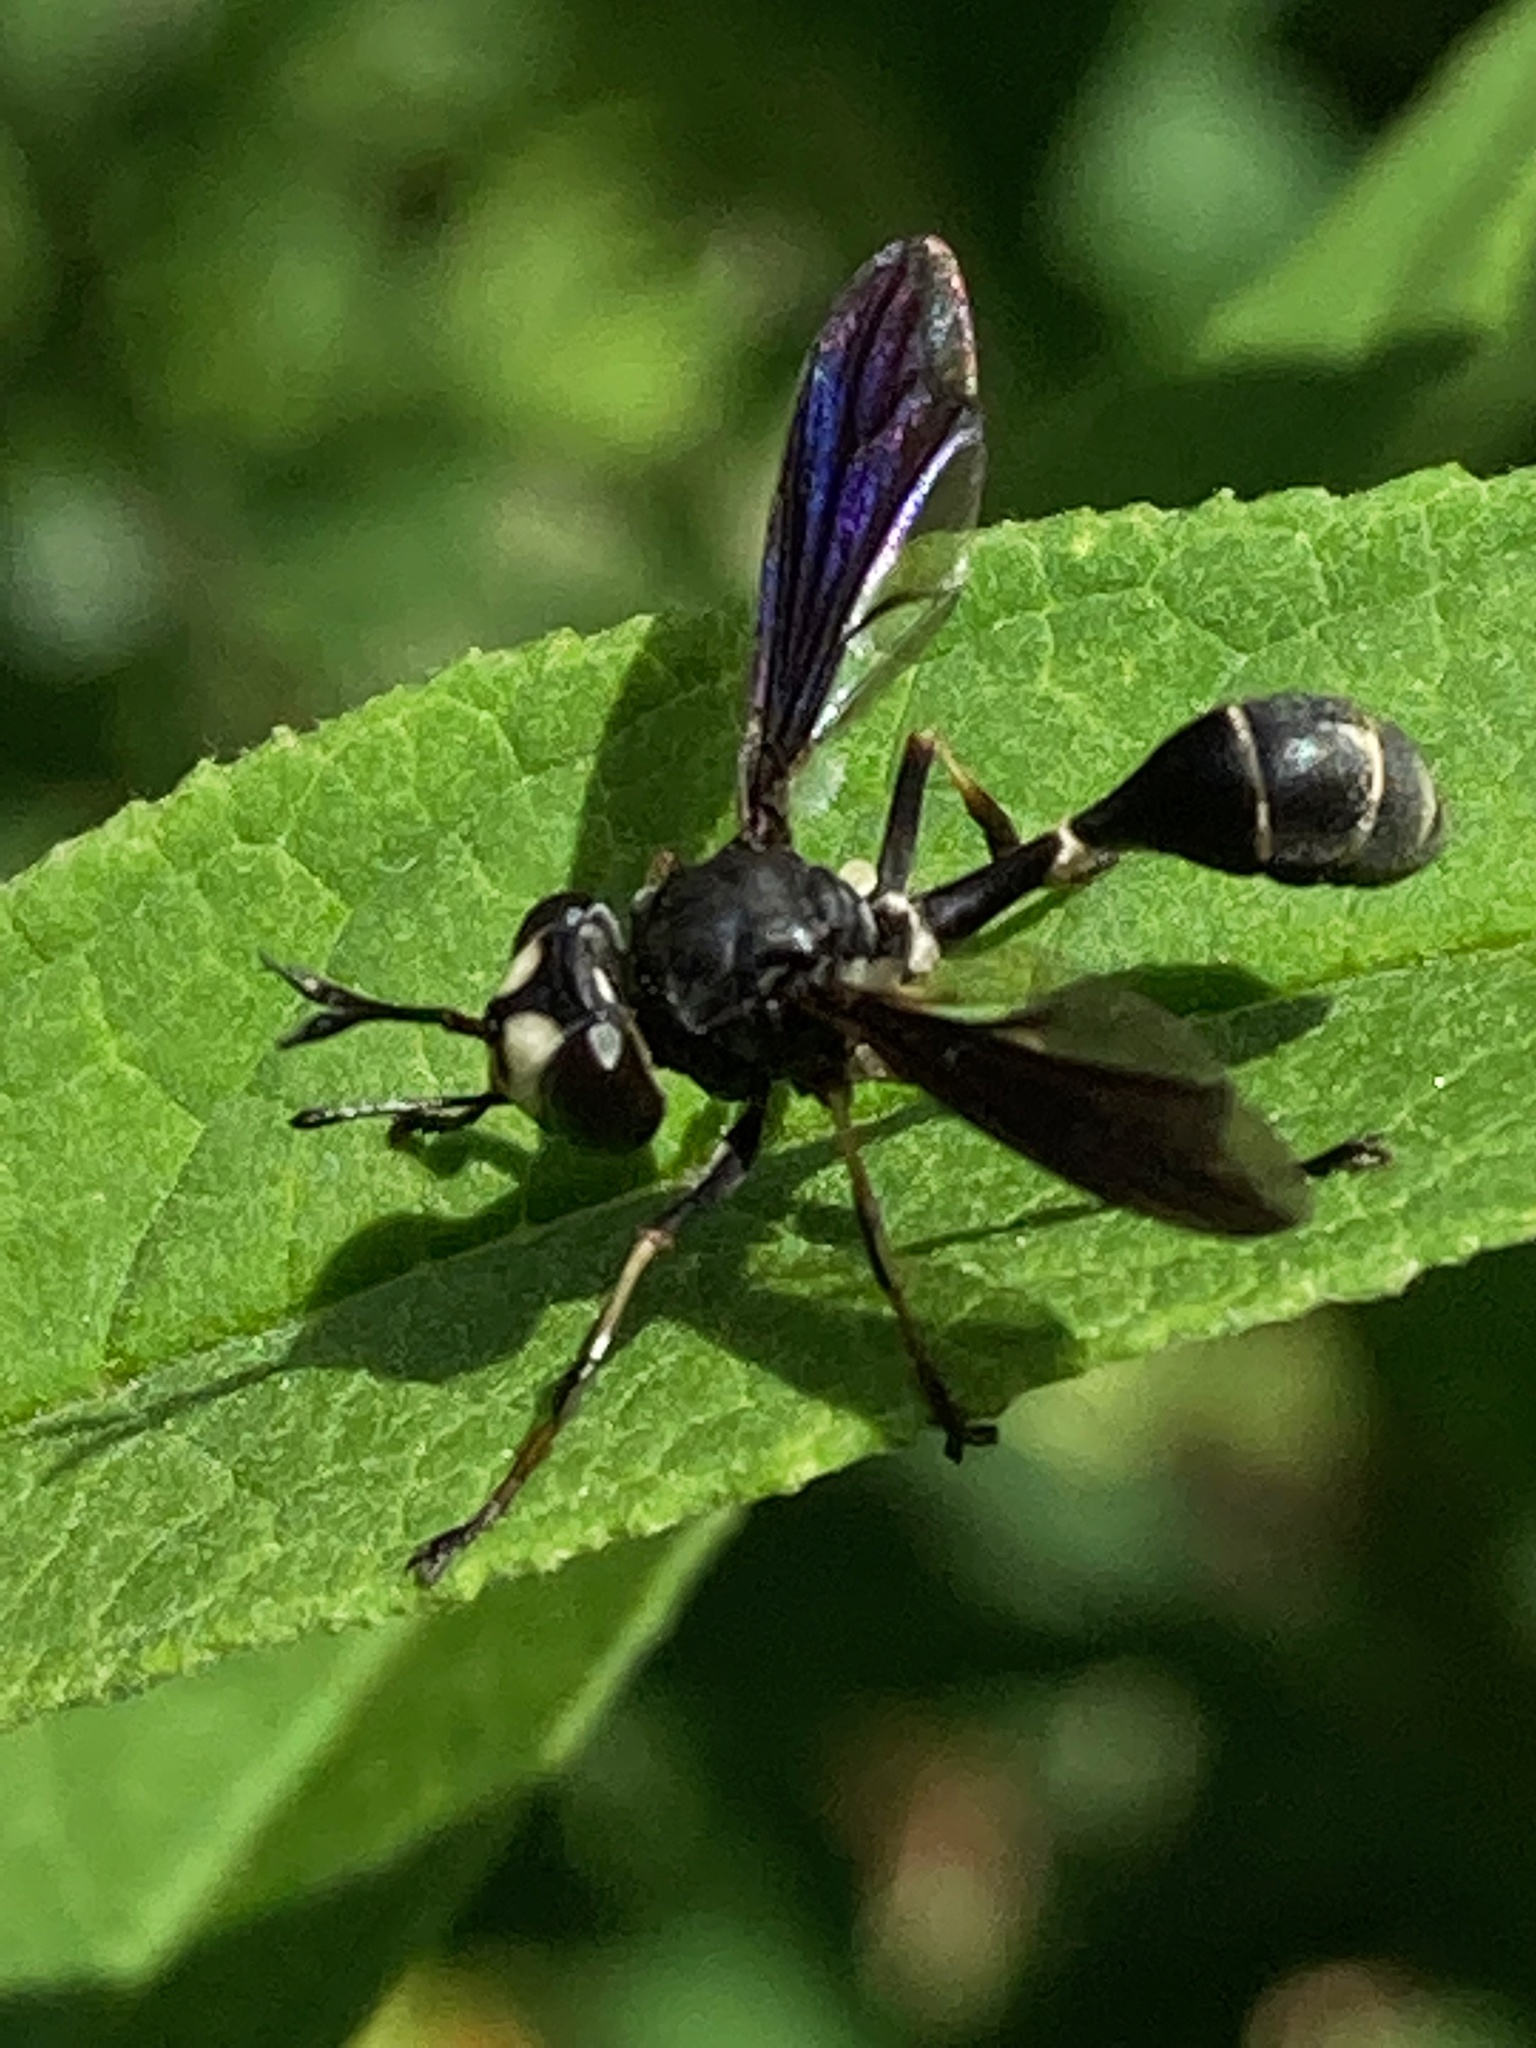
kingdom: Animalia
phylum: Arthropoda
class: Insecta
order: Diptera
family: Conopidae
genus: Physocephala
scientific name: Physocephala tibialis
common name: Common eastern physocephala
